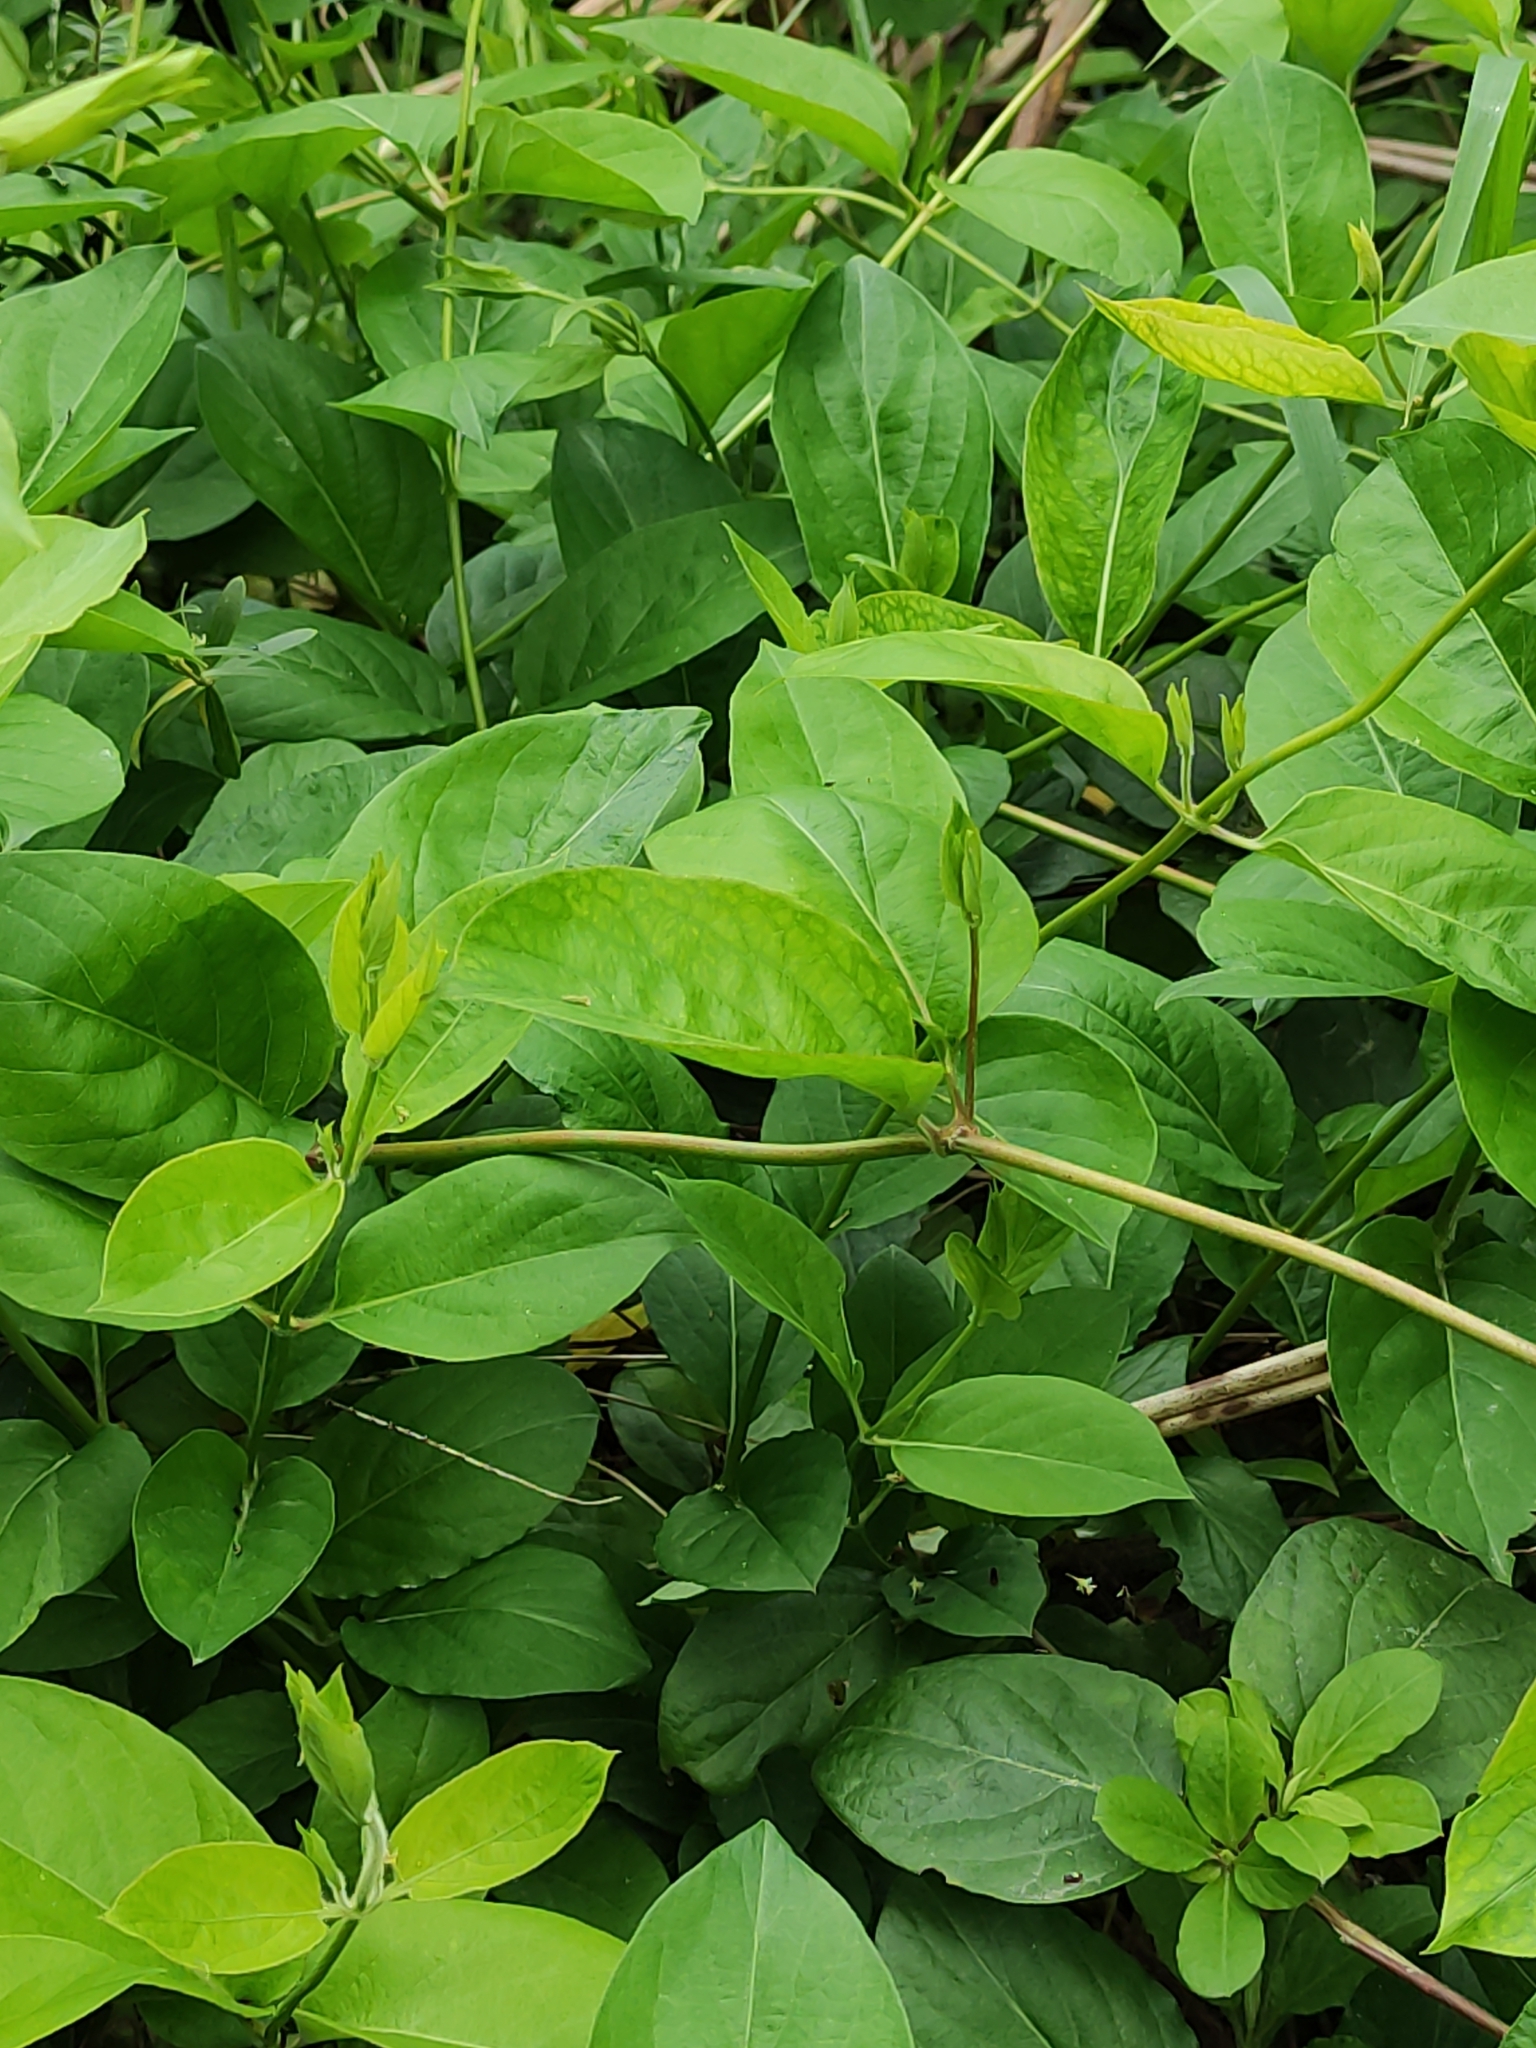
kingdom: Plantae
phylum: Tracheophyta
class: Magnoliopsida
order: Dipsacales
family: Caprifoliaceae
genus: Lonicera
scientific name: Lonicera japonica
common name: Japanese honeysuckle
